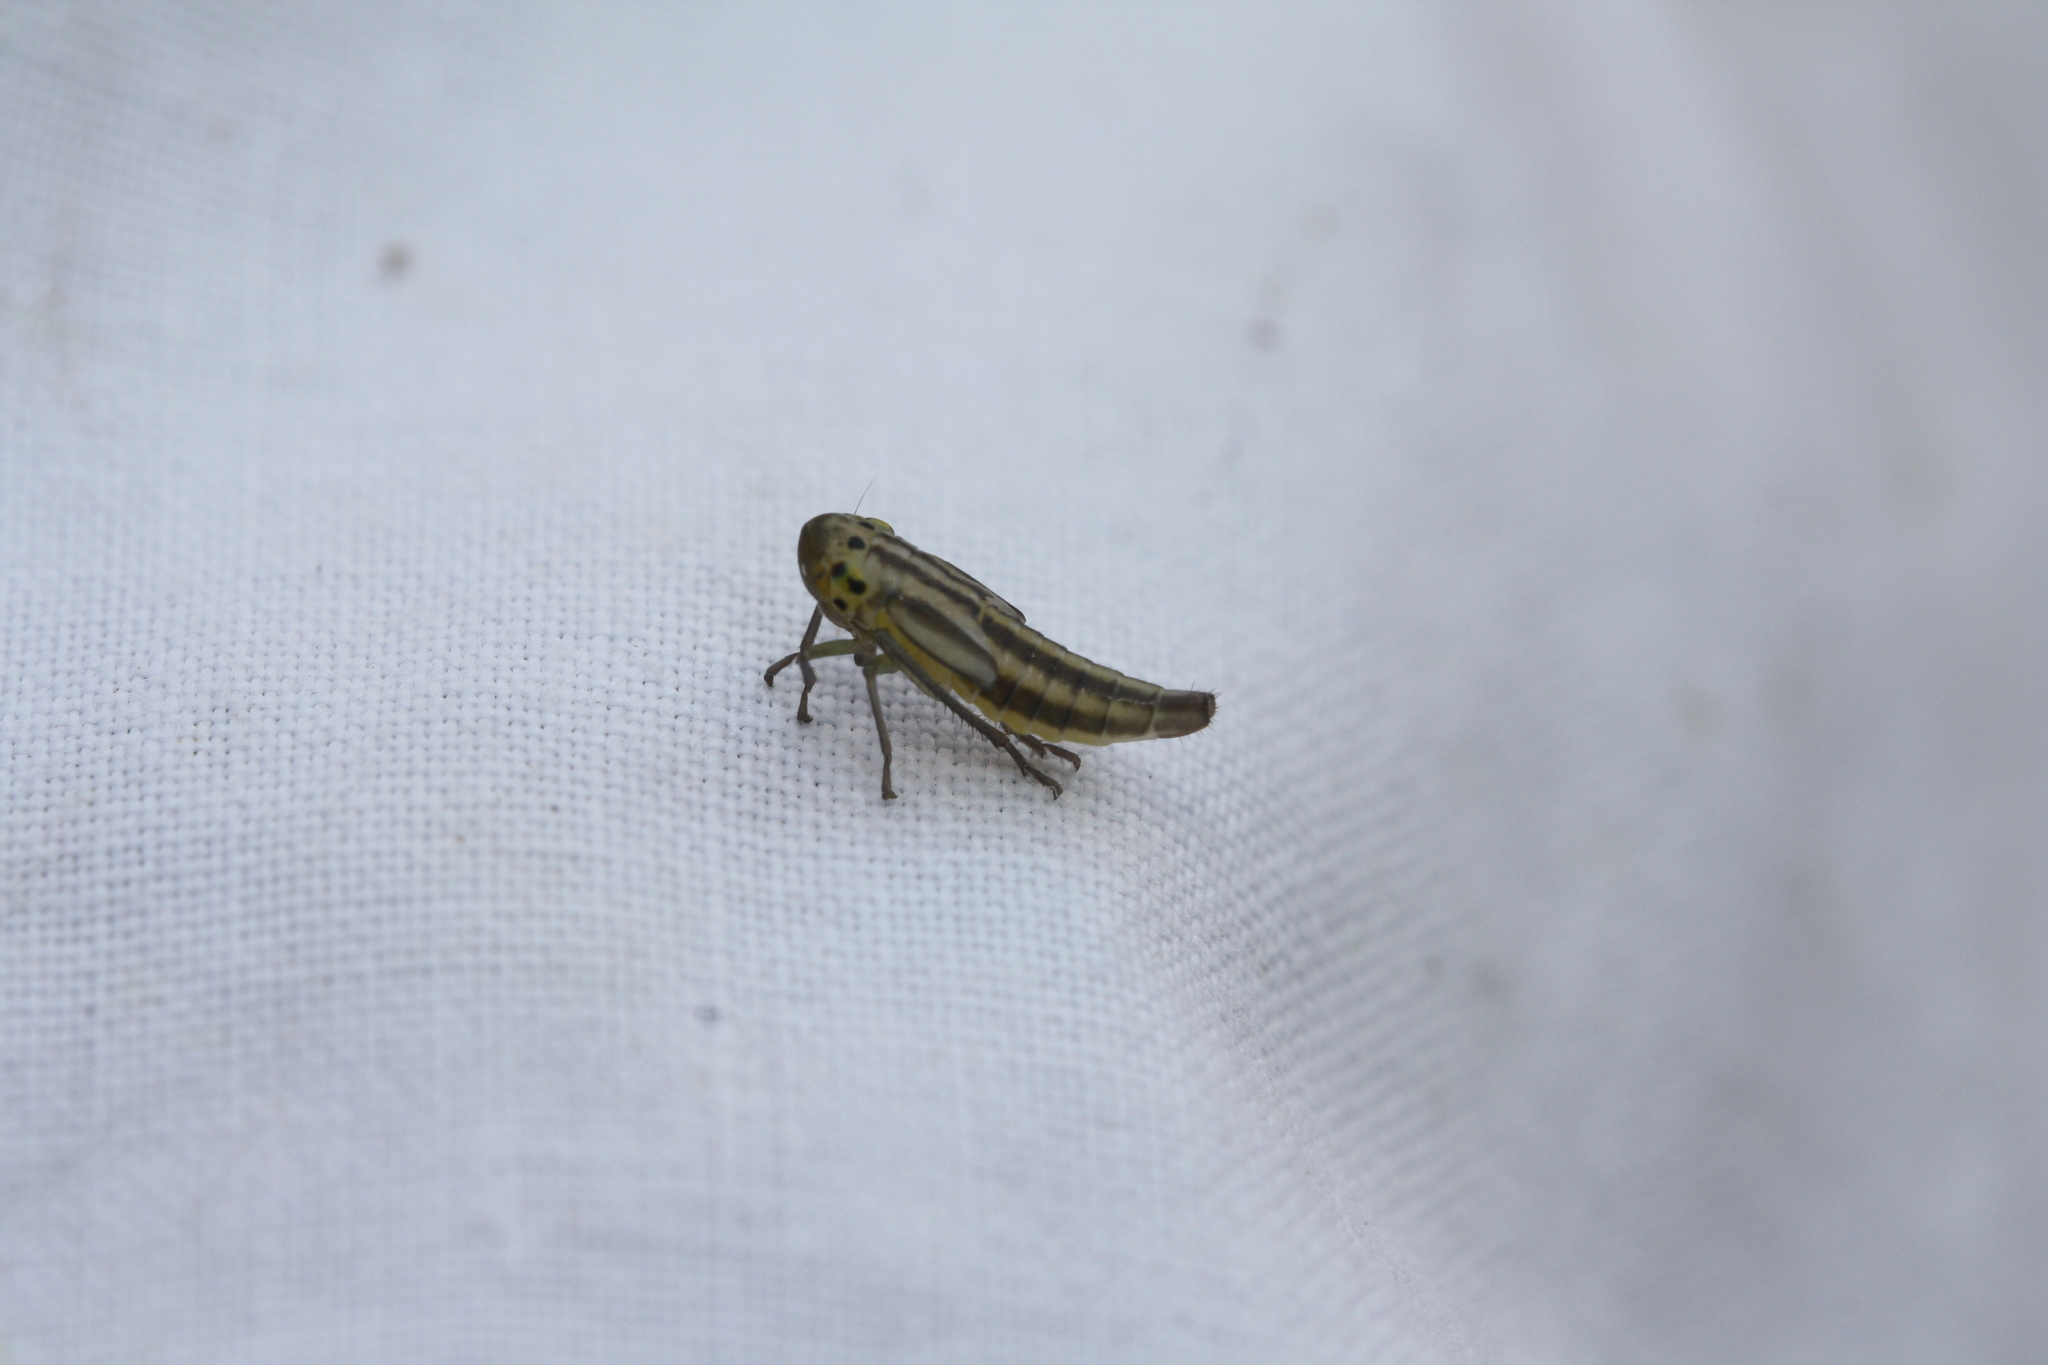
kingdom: Animalia
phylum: Arthropoda
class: Insecta
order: Hemiptera
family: Cicadellidae
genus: Cicadella
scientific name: Cicadella viridis
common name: Leafhopper
